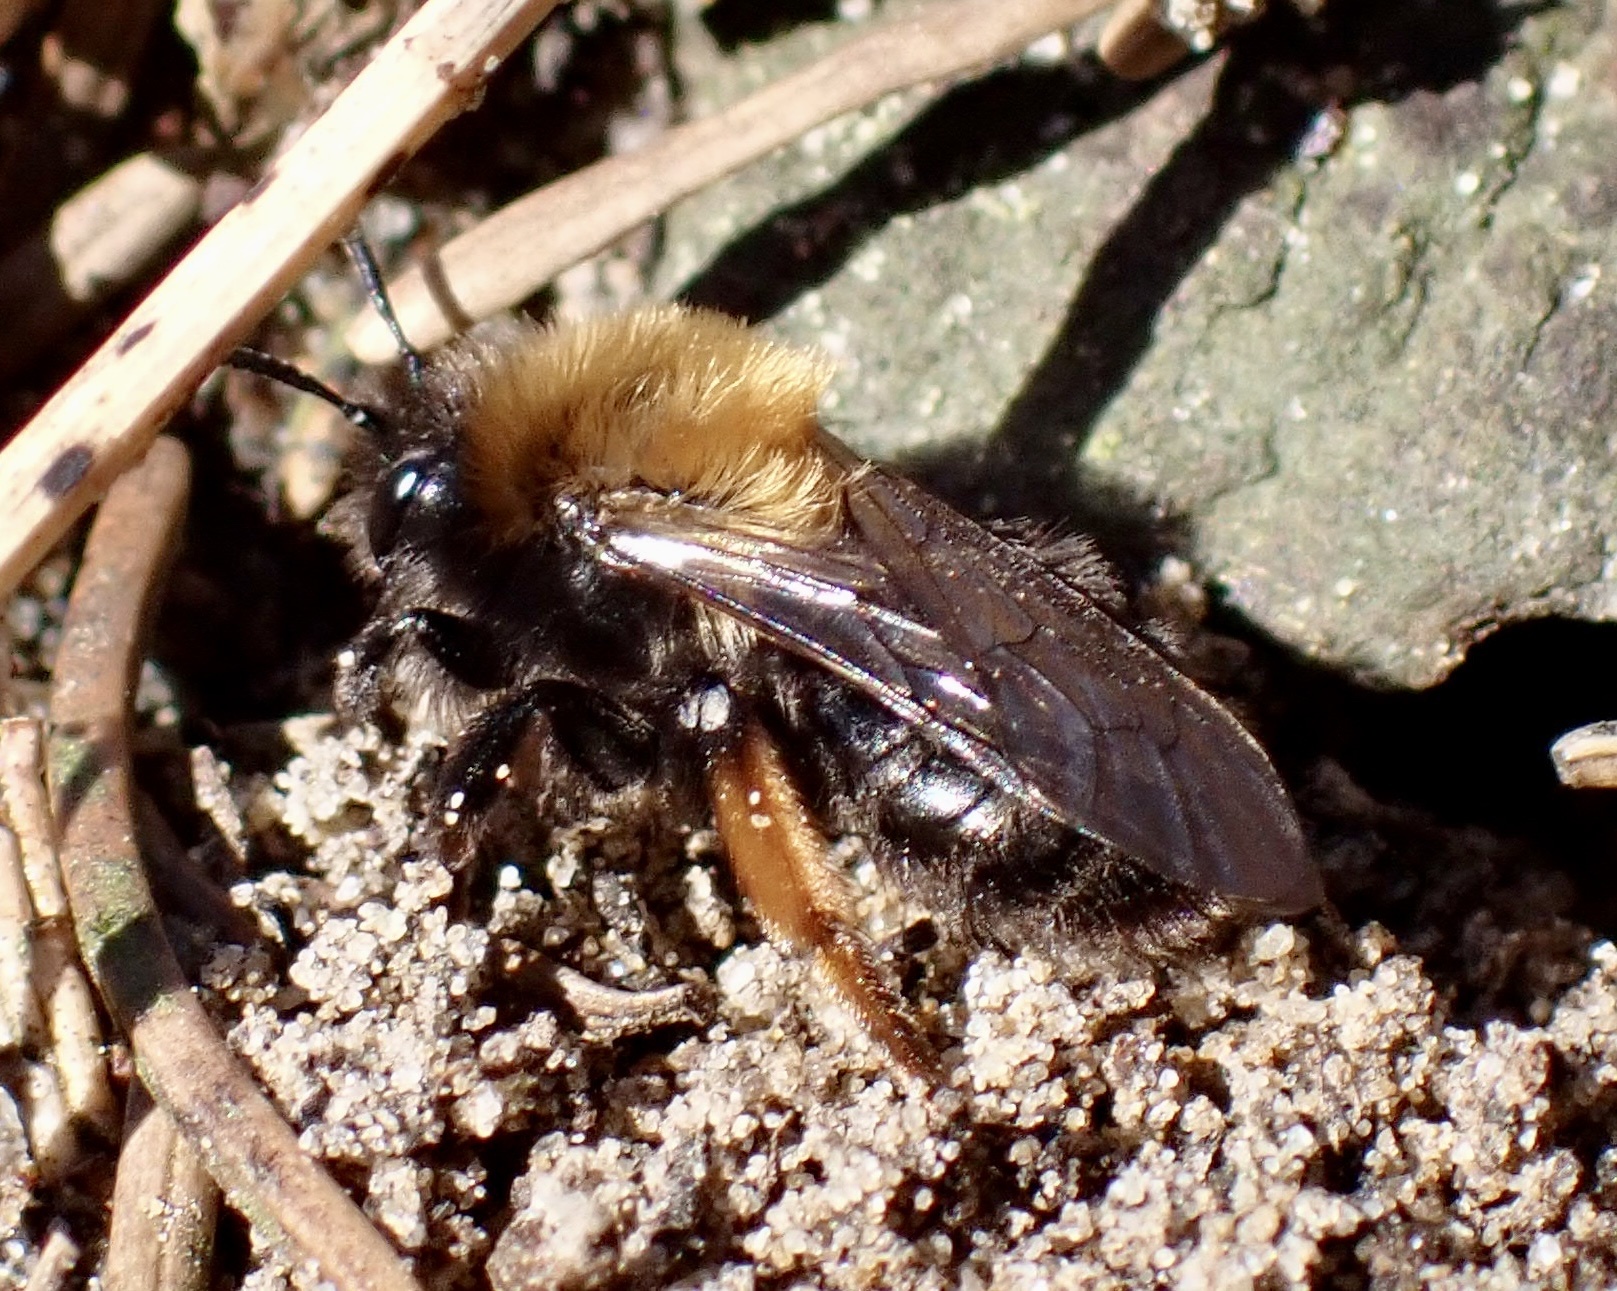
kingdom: Animalia
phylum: Arthropoda
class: Insecta
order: Hymenoptera
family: Andrenidae
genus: Andrena
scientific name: Andrena clarkella
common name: Clarke's mining bee
